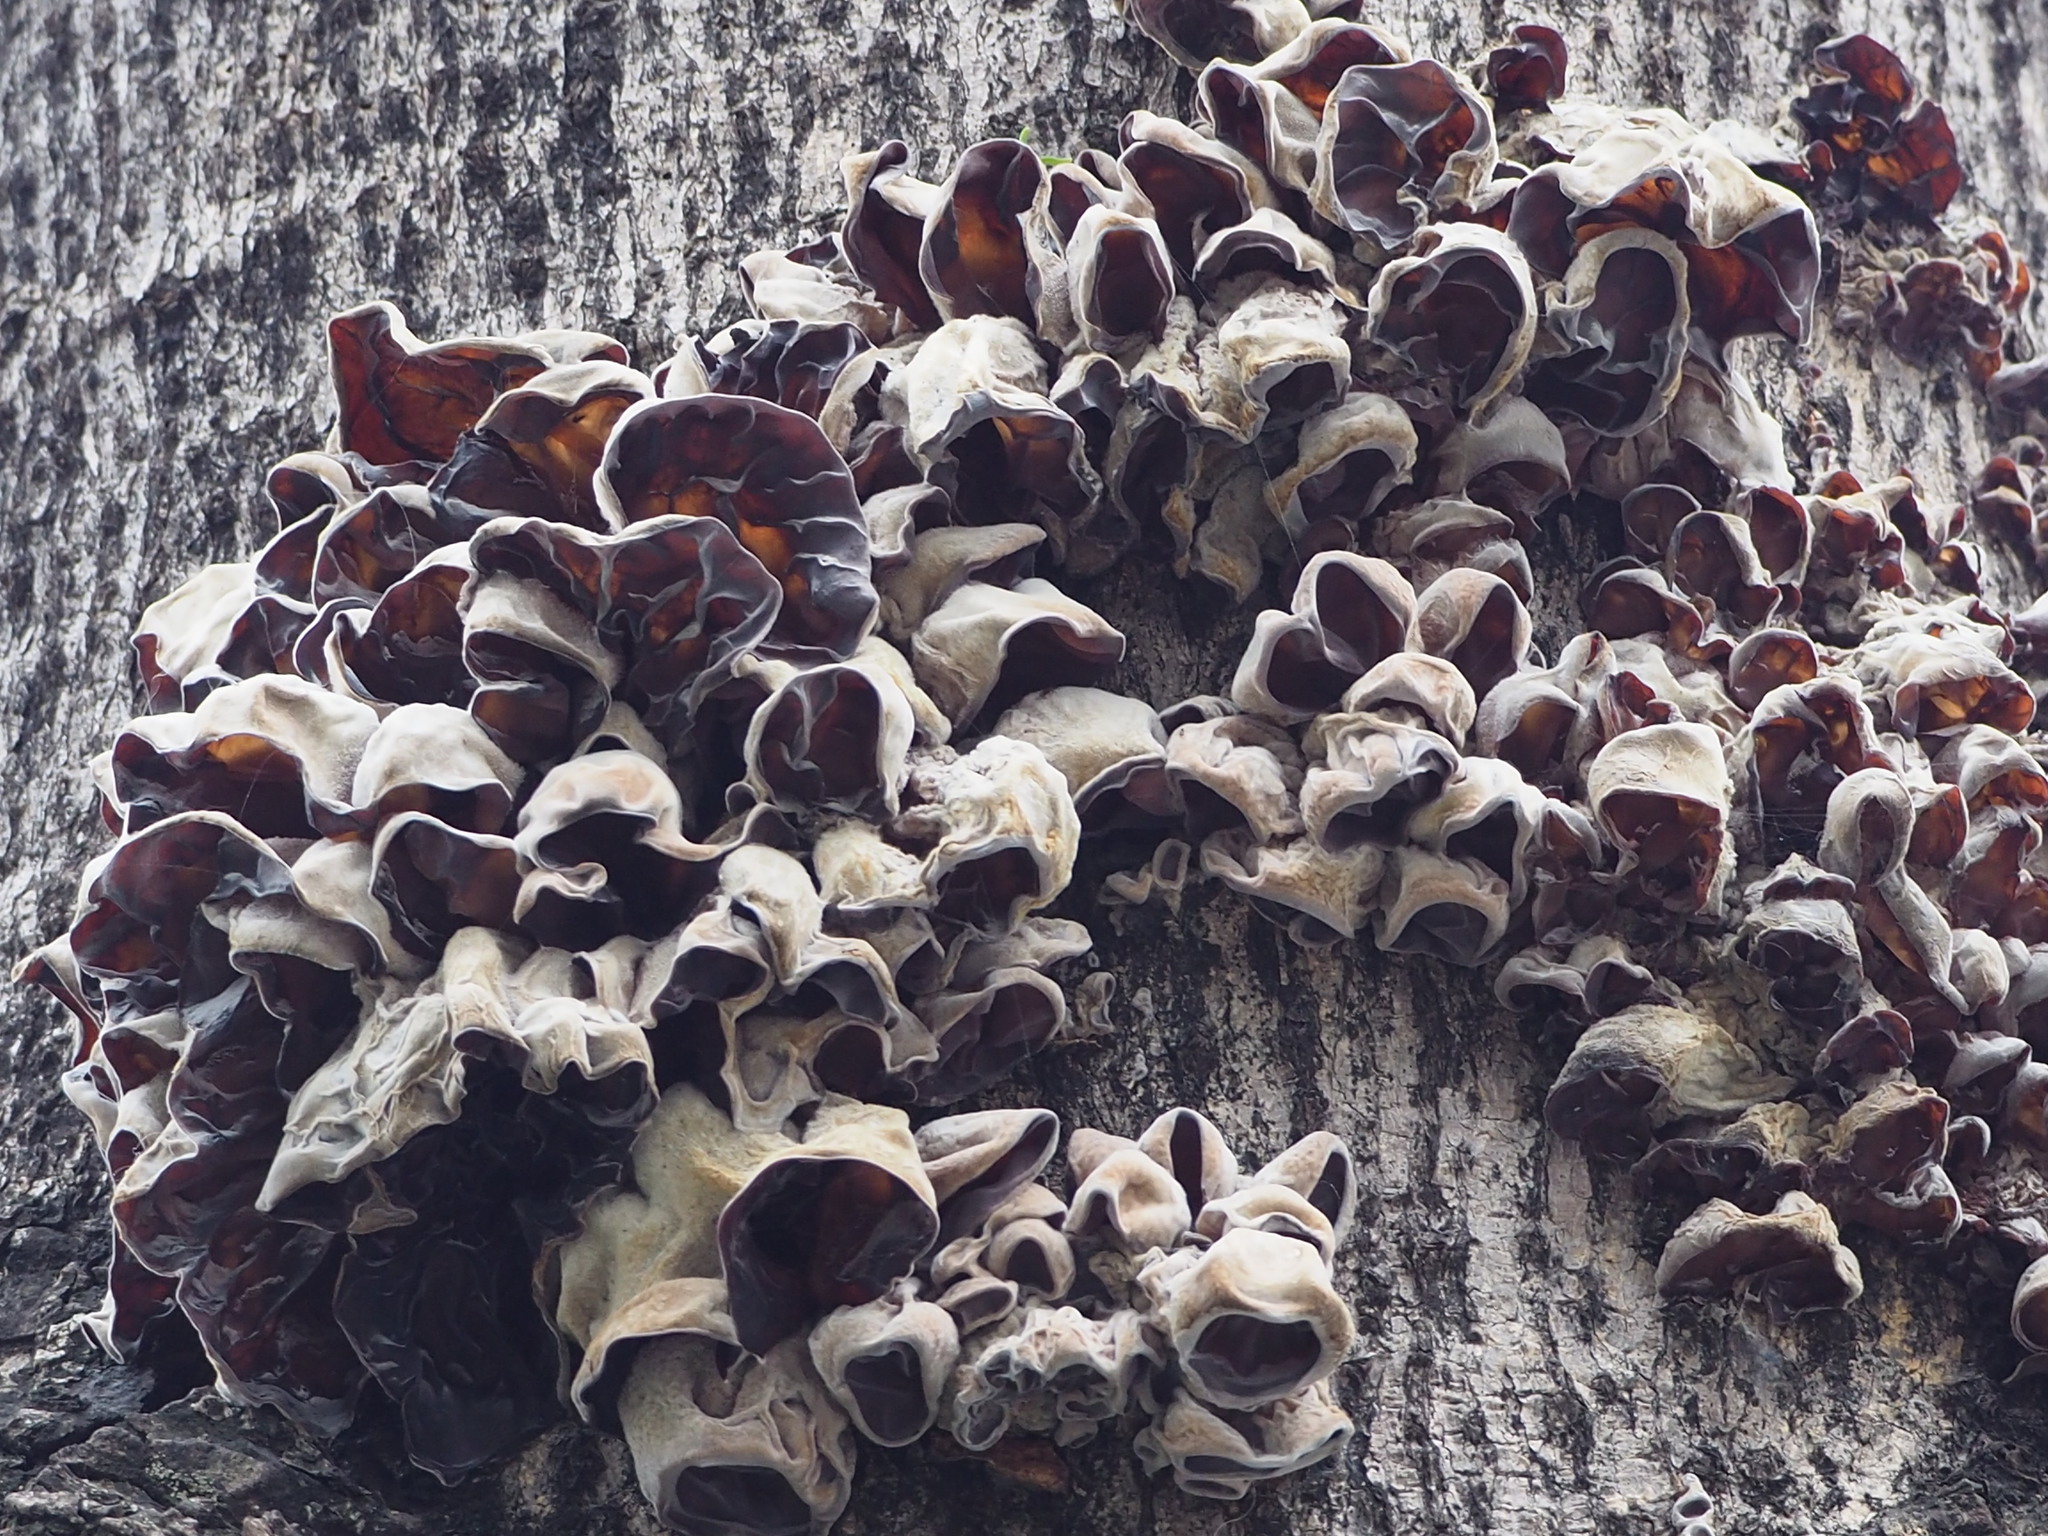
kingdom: Fungi
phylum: Basidiomycota
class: Agaricomycetes
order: Auriculariales
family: Auriculariaceae
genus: Auricularia
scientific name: Auricularia nigricans
